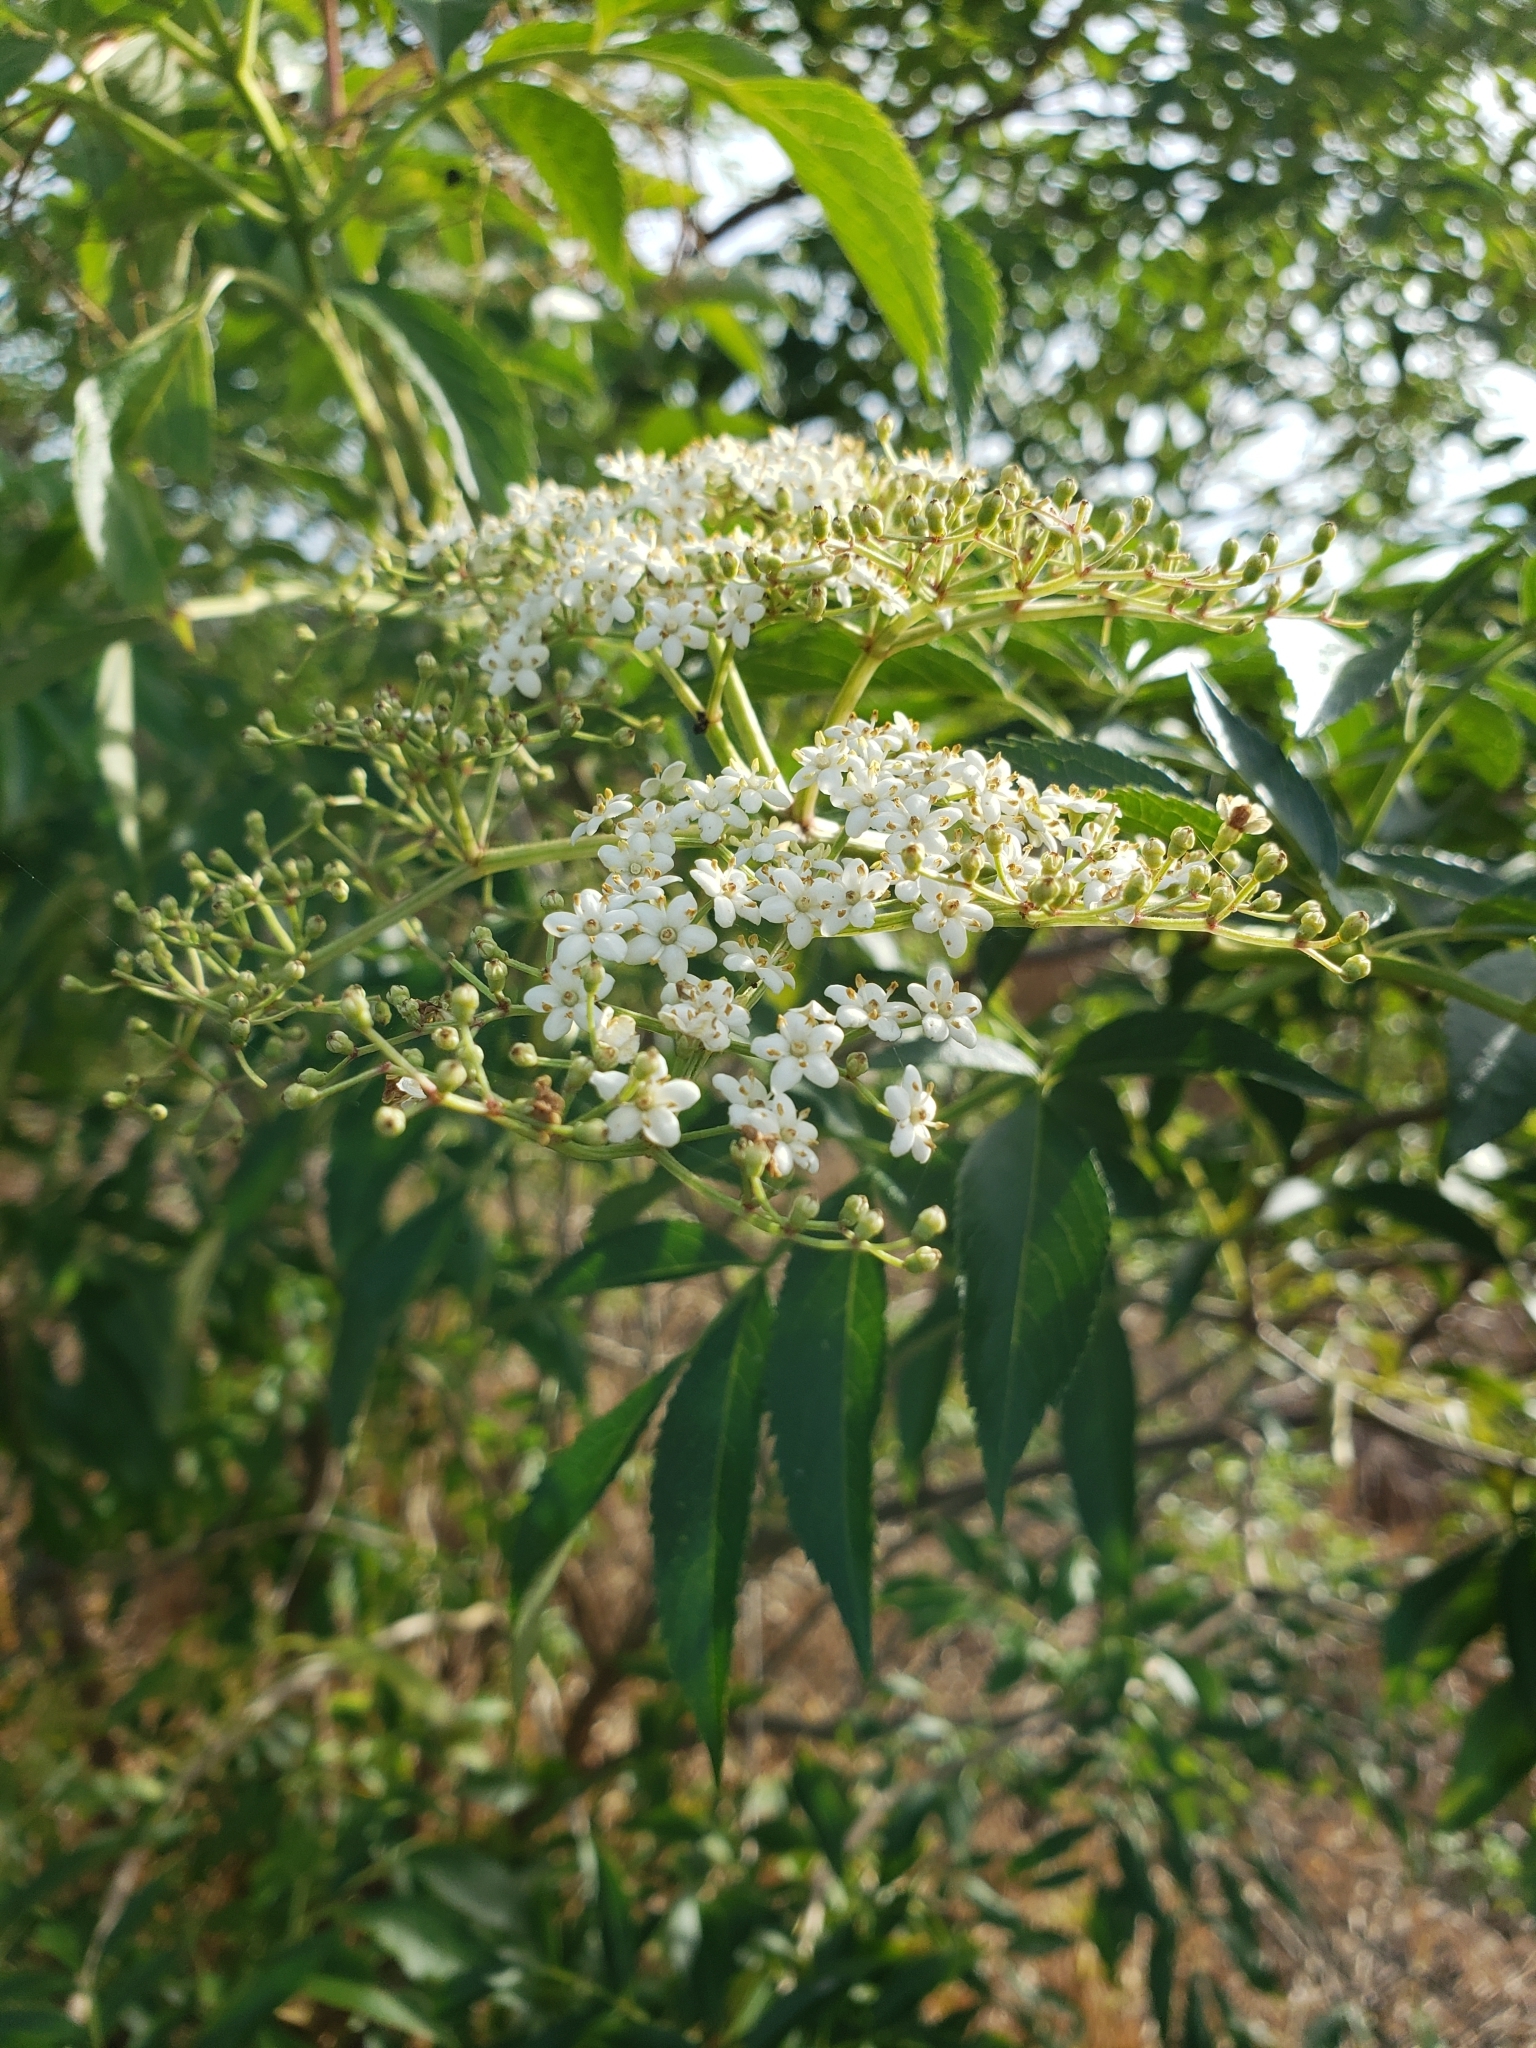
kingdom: Plantae
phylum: Tracheophyta
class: Magnoliopsida
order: Dipsacales
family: Viburnaceae
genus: Sambucus
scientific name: Sambucus canadensis
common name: American elder
